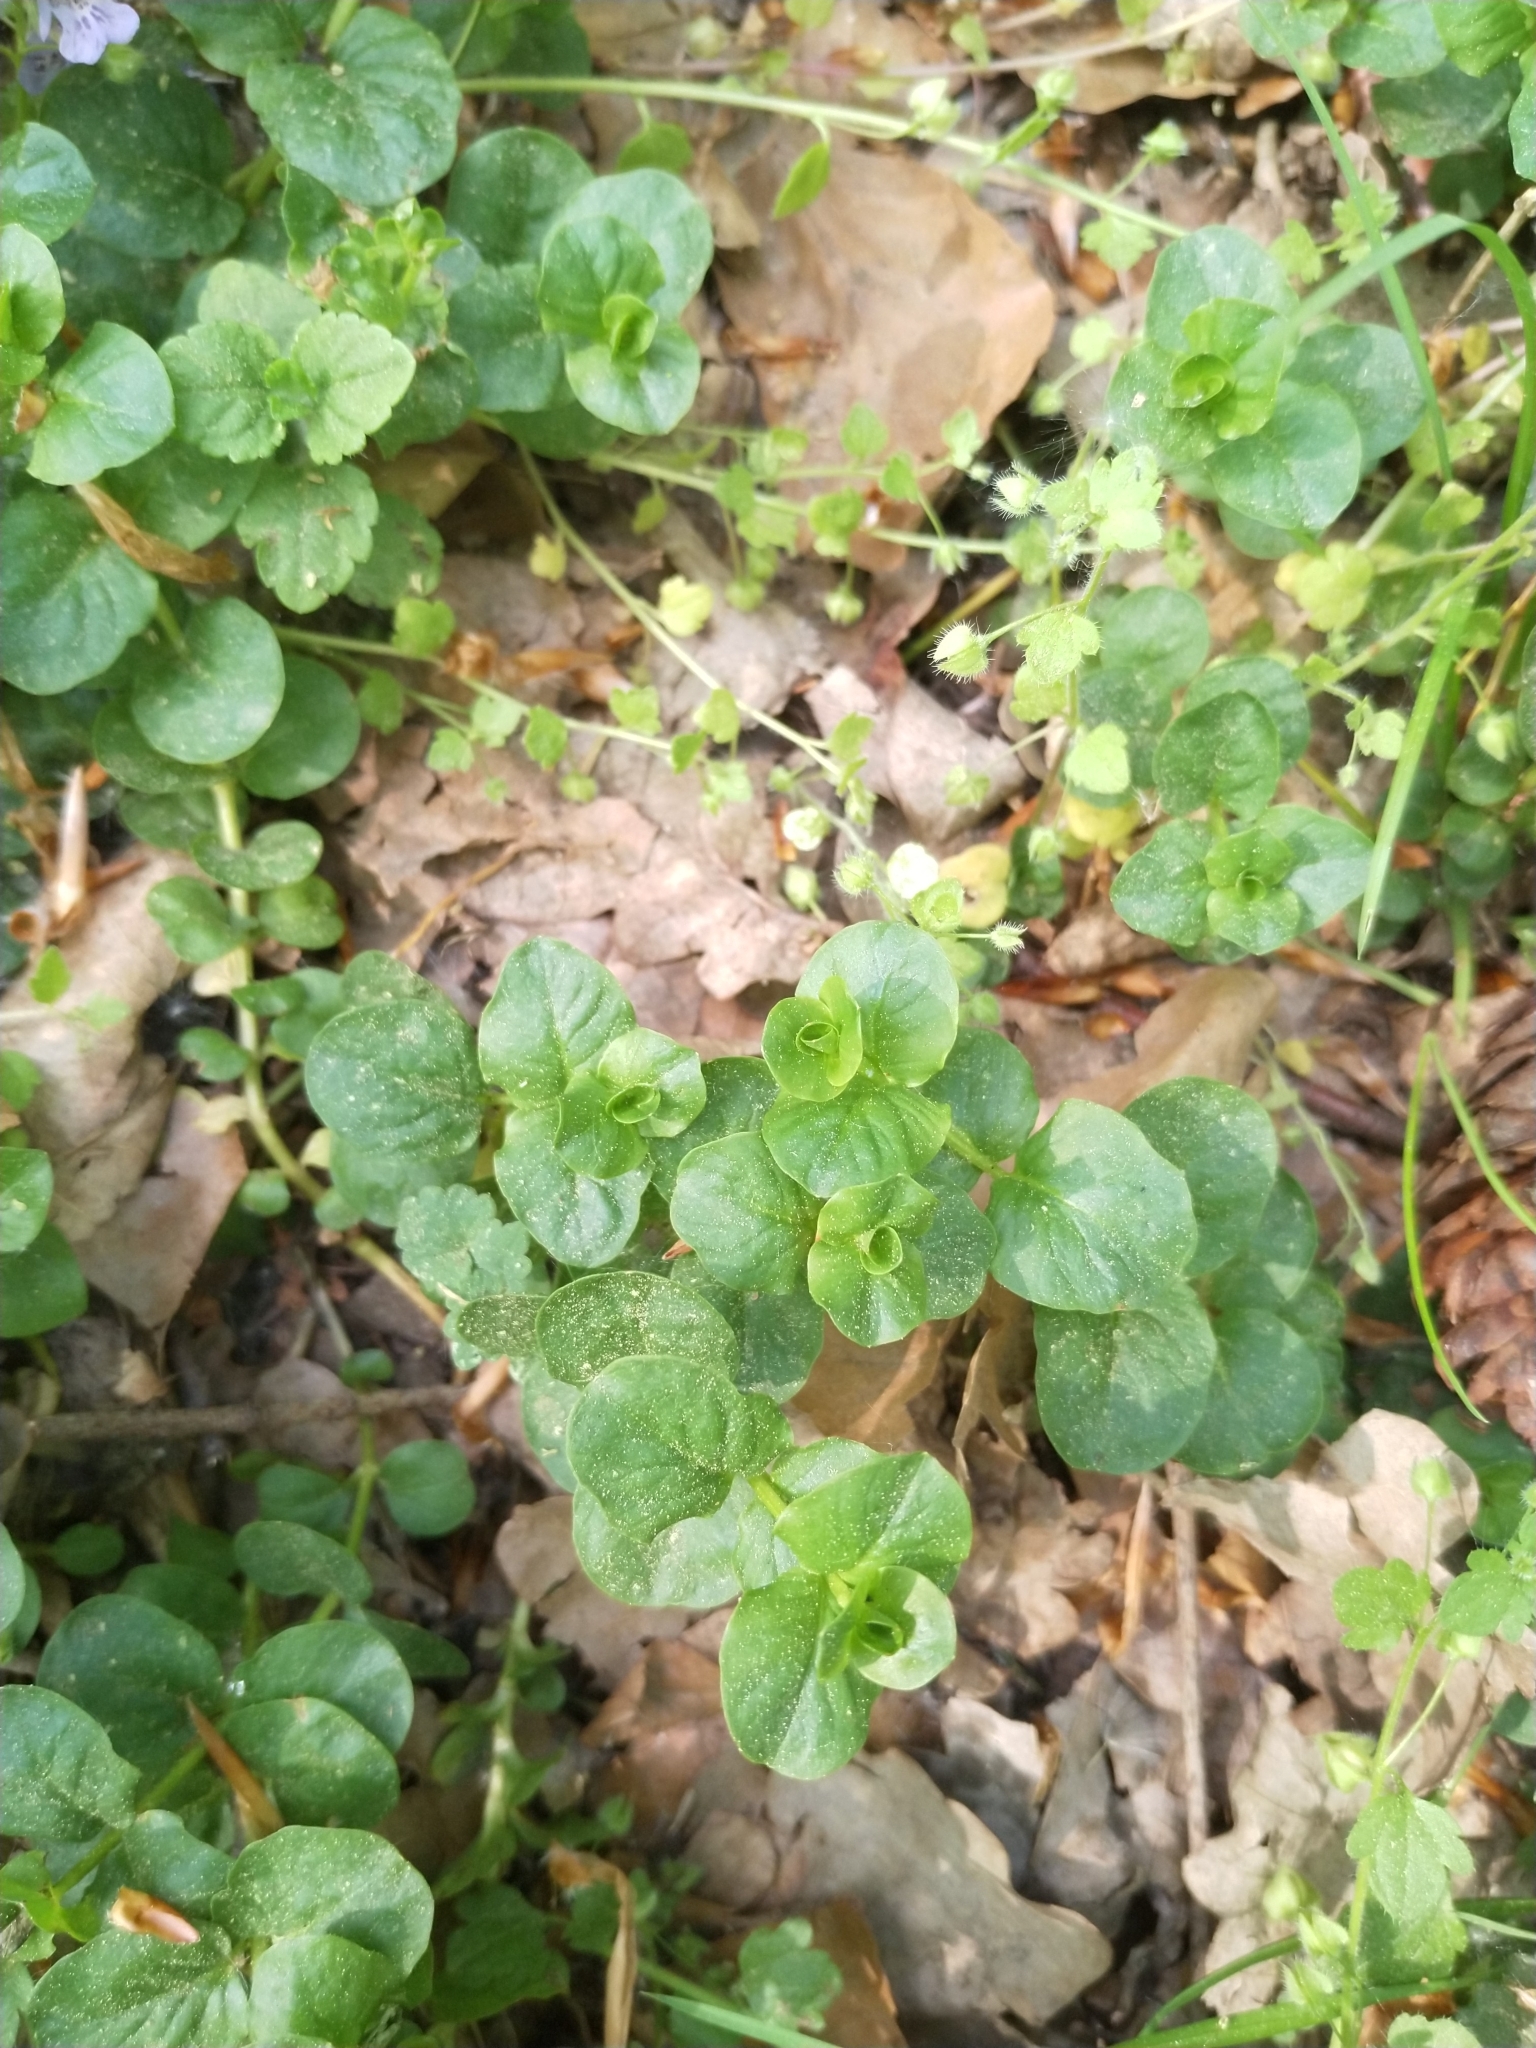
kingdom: Plantae
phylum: Tracheophyta
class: Magnoliopsida
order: Ericales
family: Primulaceae
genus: Lysimachia
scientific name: Lysimachia nummularia
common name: Moneywort
